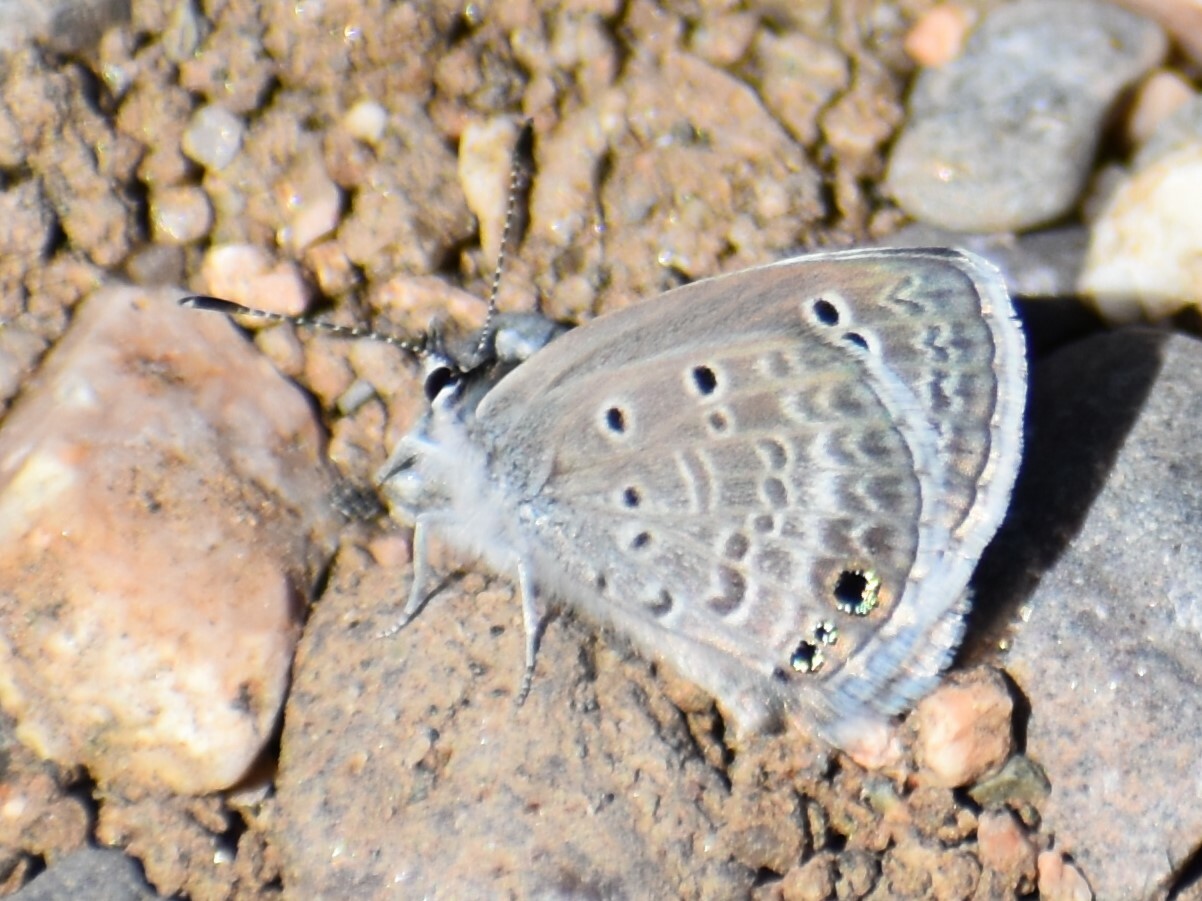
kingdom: Animalia
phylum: Arthropoda
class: Insecta
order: Lepidoptera
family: Lycaenidae
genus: Echinargus
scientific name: Echinargus isola
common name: Reakirt's blue
